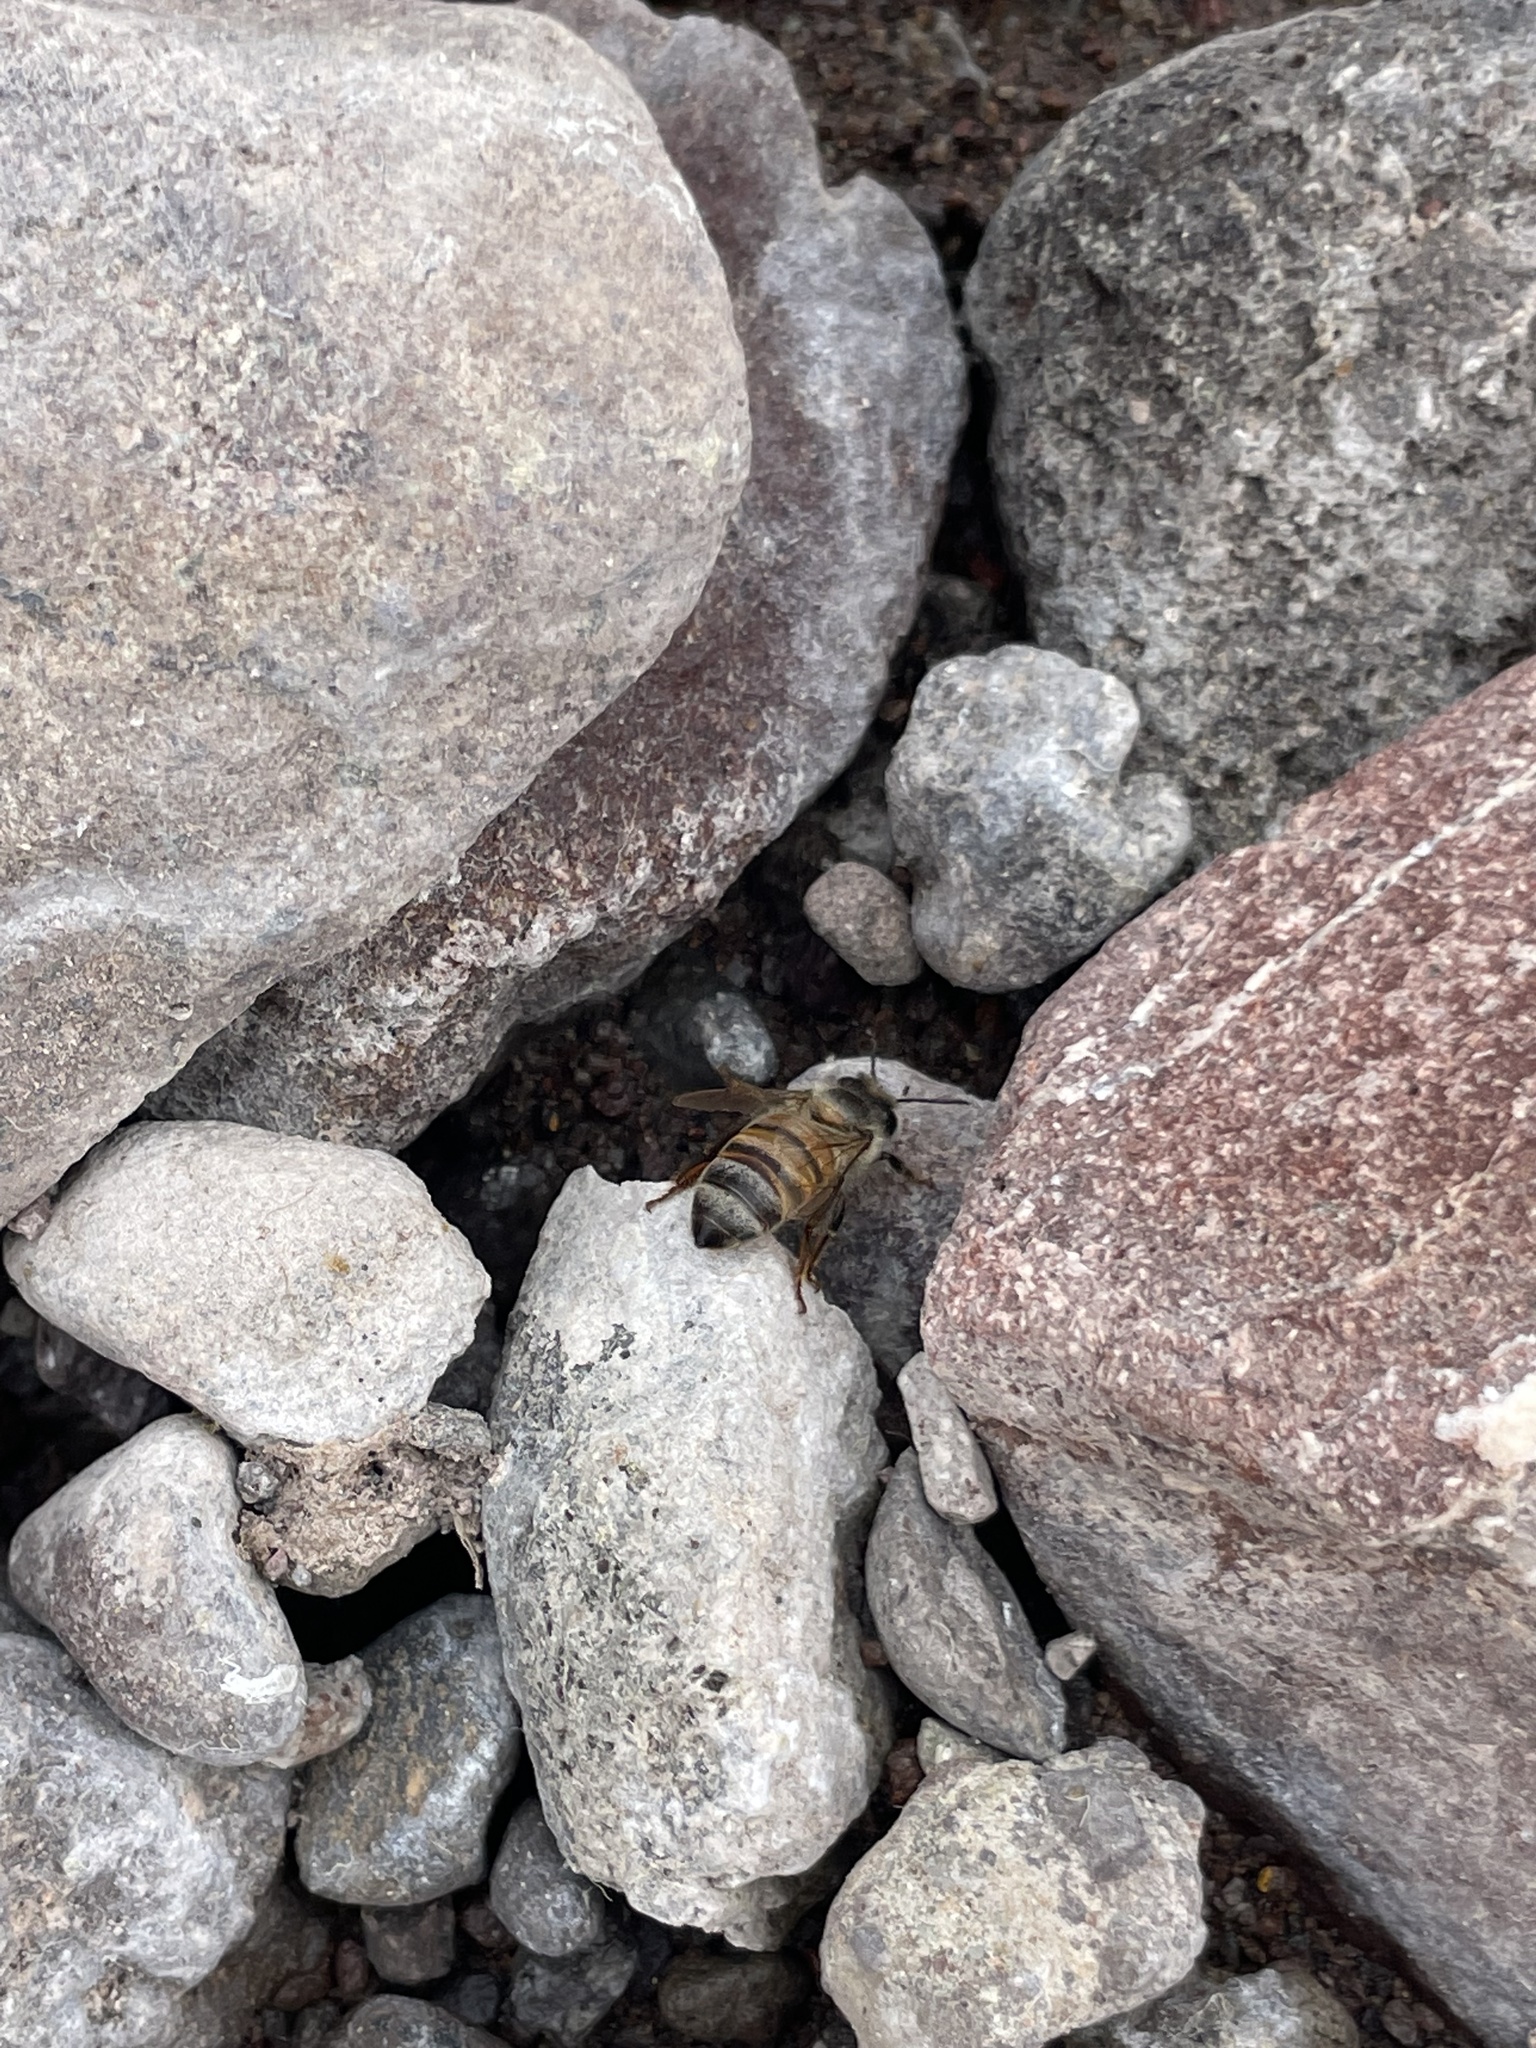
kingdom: Animalia
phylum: Arthropoda
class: Insecta
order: Hymenoptera
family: Apidae
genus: Apis
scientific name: Apis mellifera
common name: Honey bee
